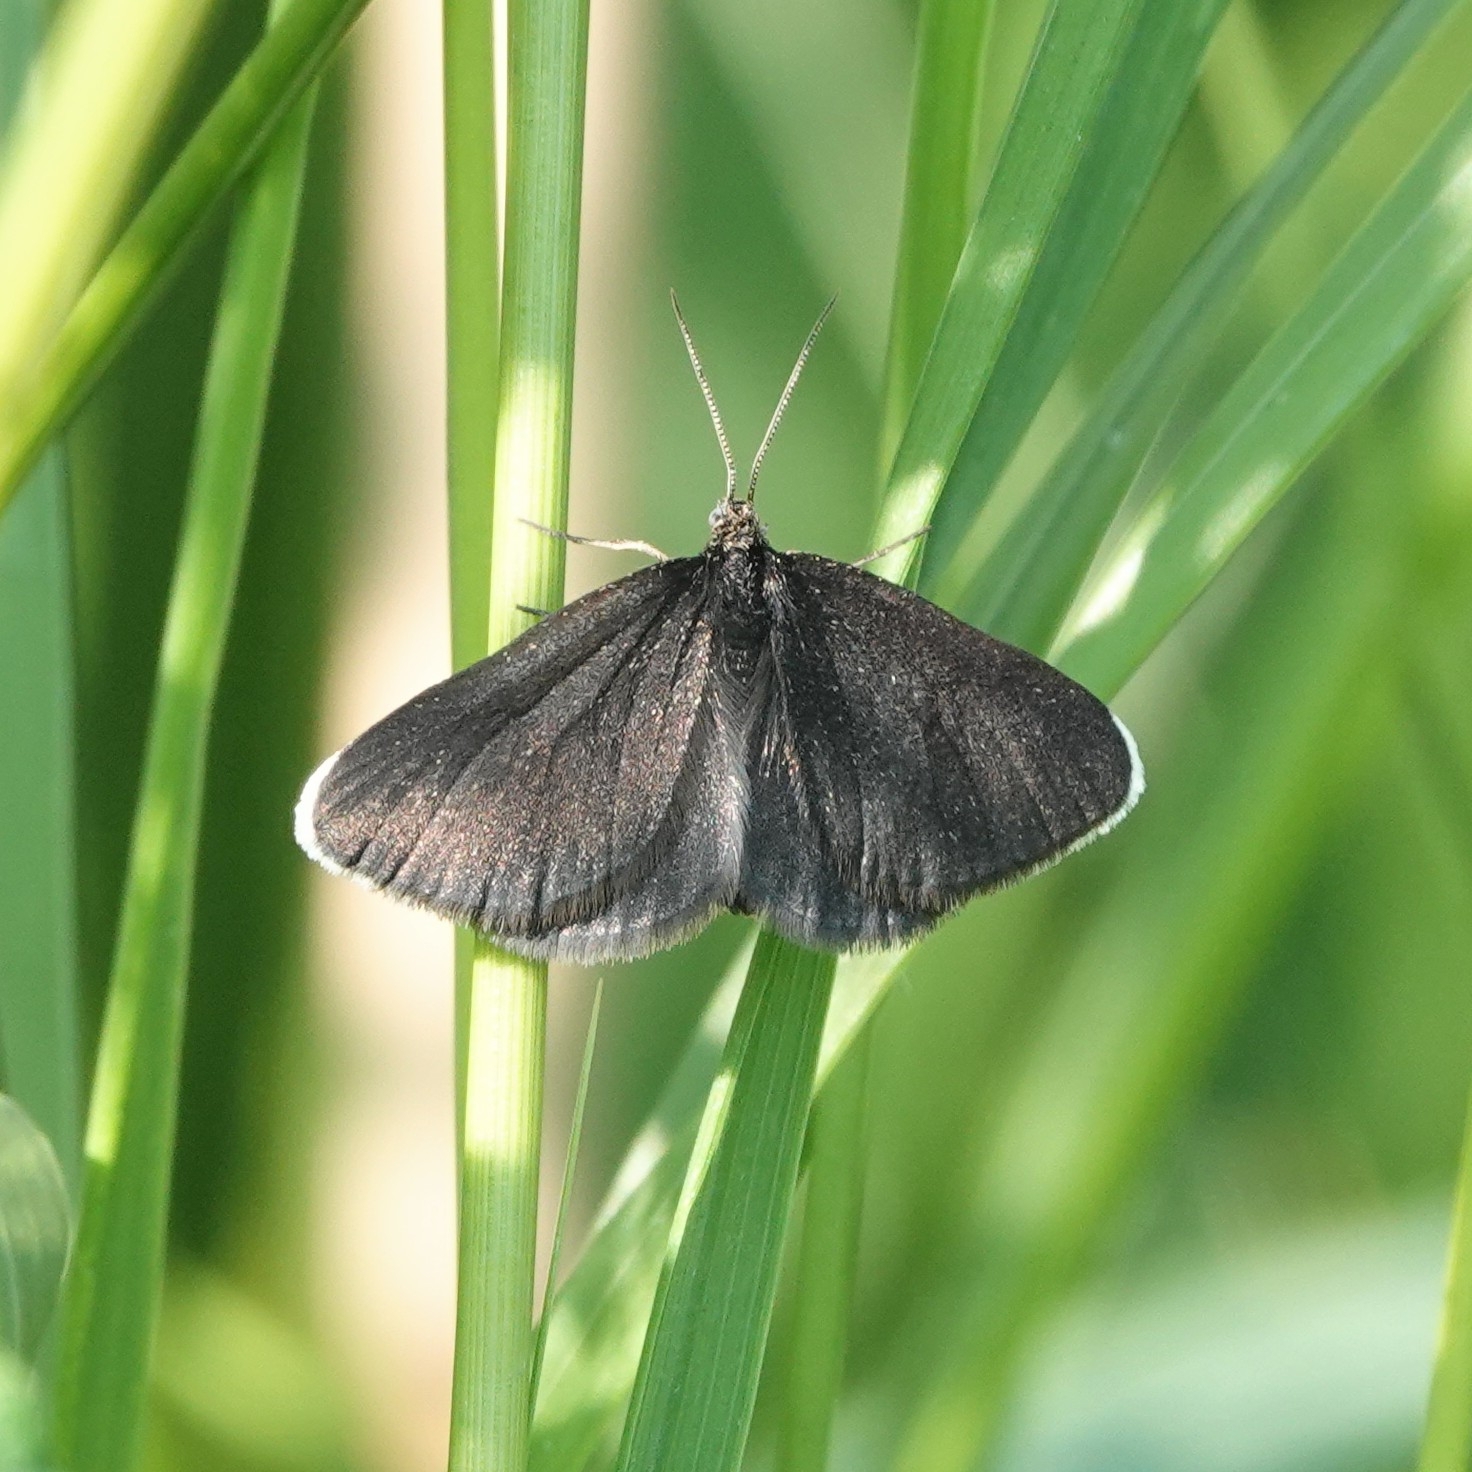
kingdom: Animalia
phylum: Arthropoda
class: Insecta
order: Lepidoptera
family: Geometridae
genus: Odezia
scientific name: Odezia atrata
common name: Chimney sweeper
